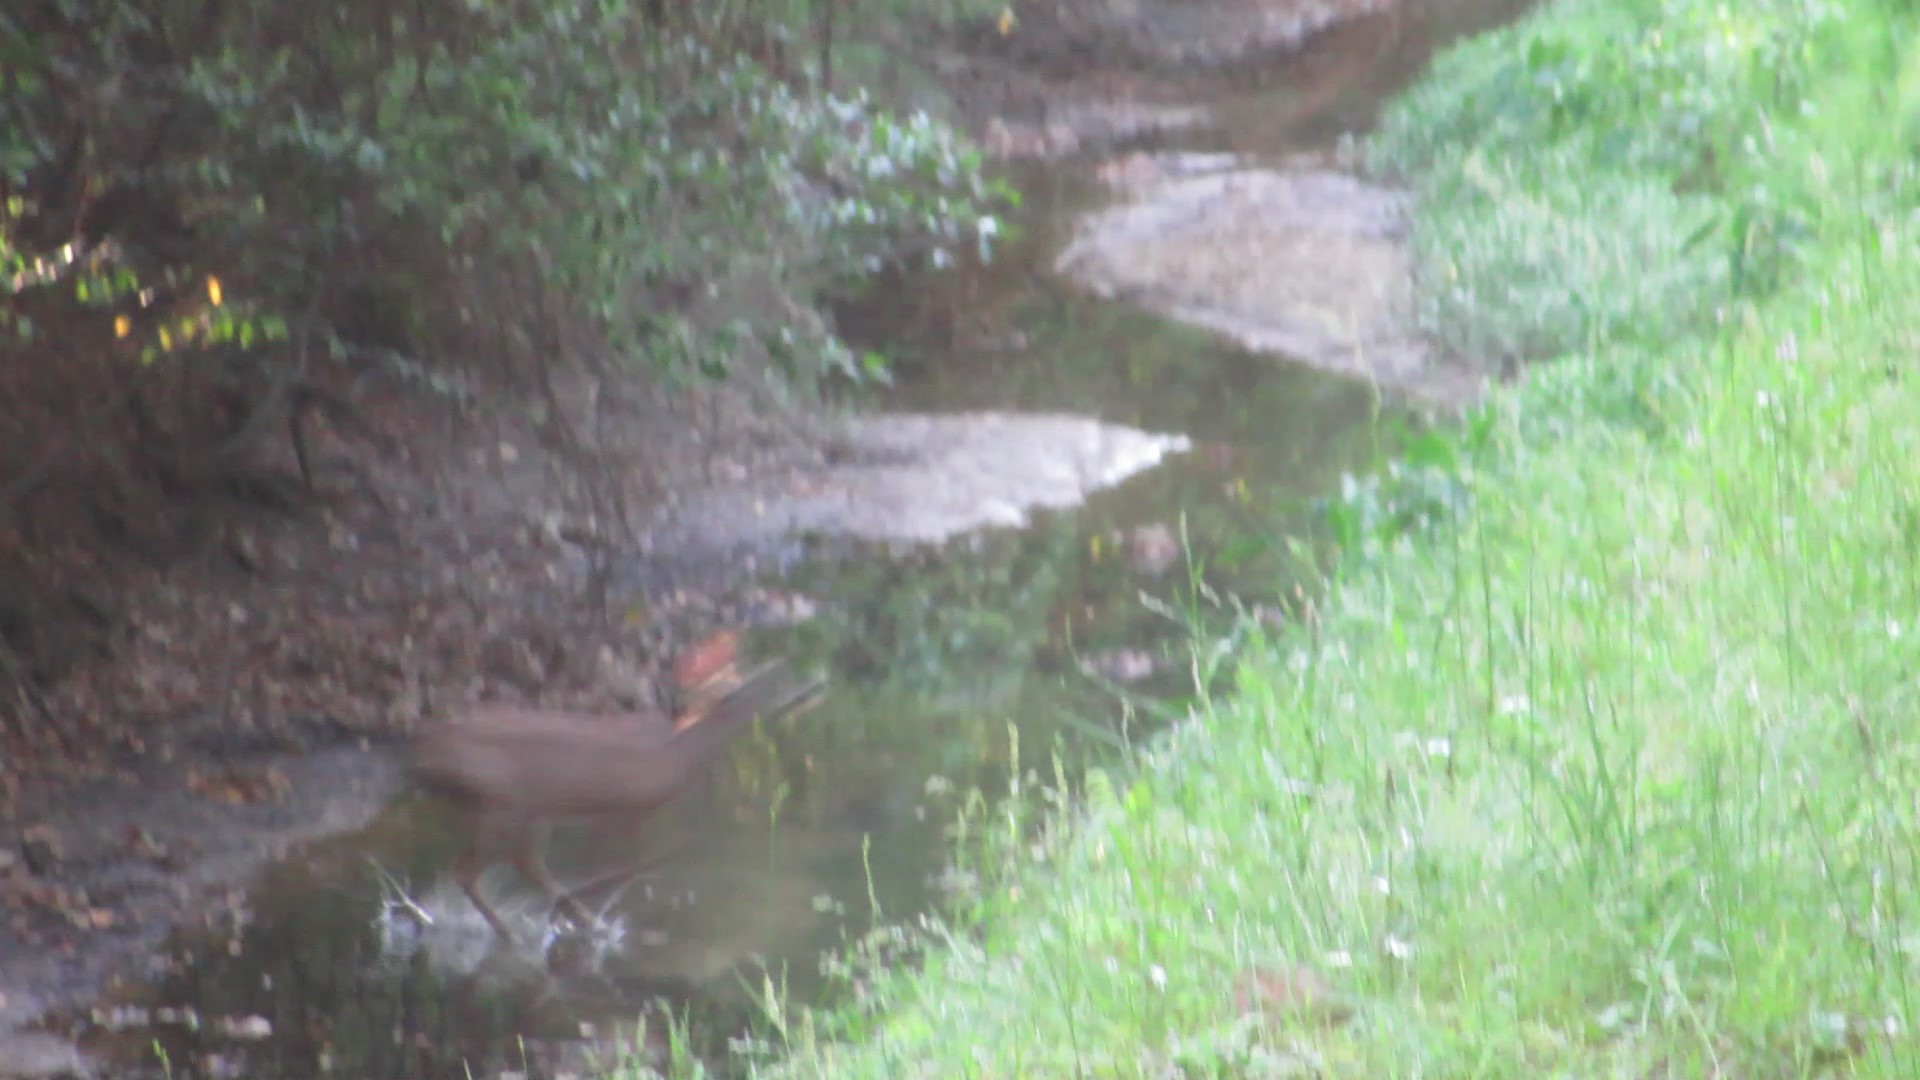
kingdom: Animalia
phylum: Chordata
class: Mammalia
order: Artiodactyla
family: Cervidae
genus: Odocoileus
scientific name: Odocoileus virginianus
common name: White-tailed deer
